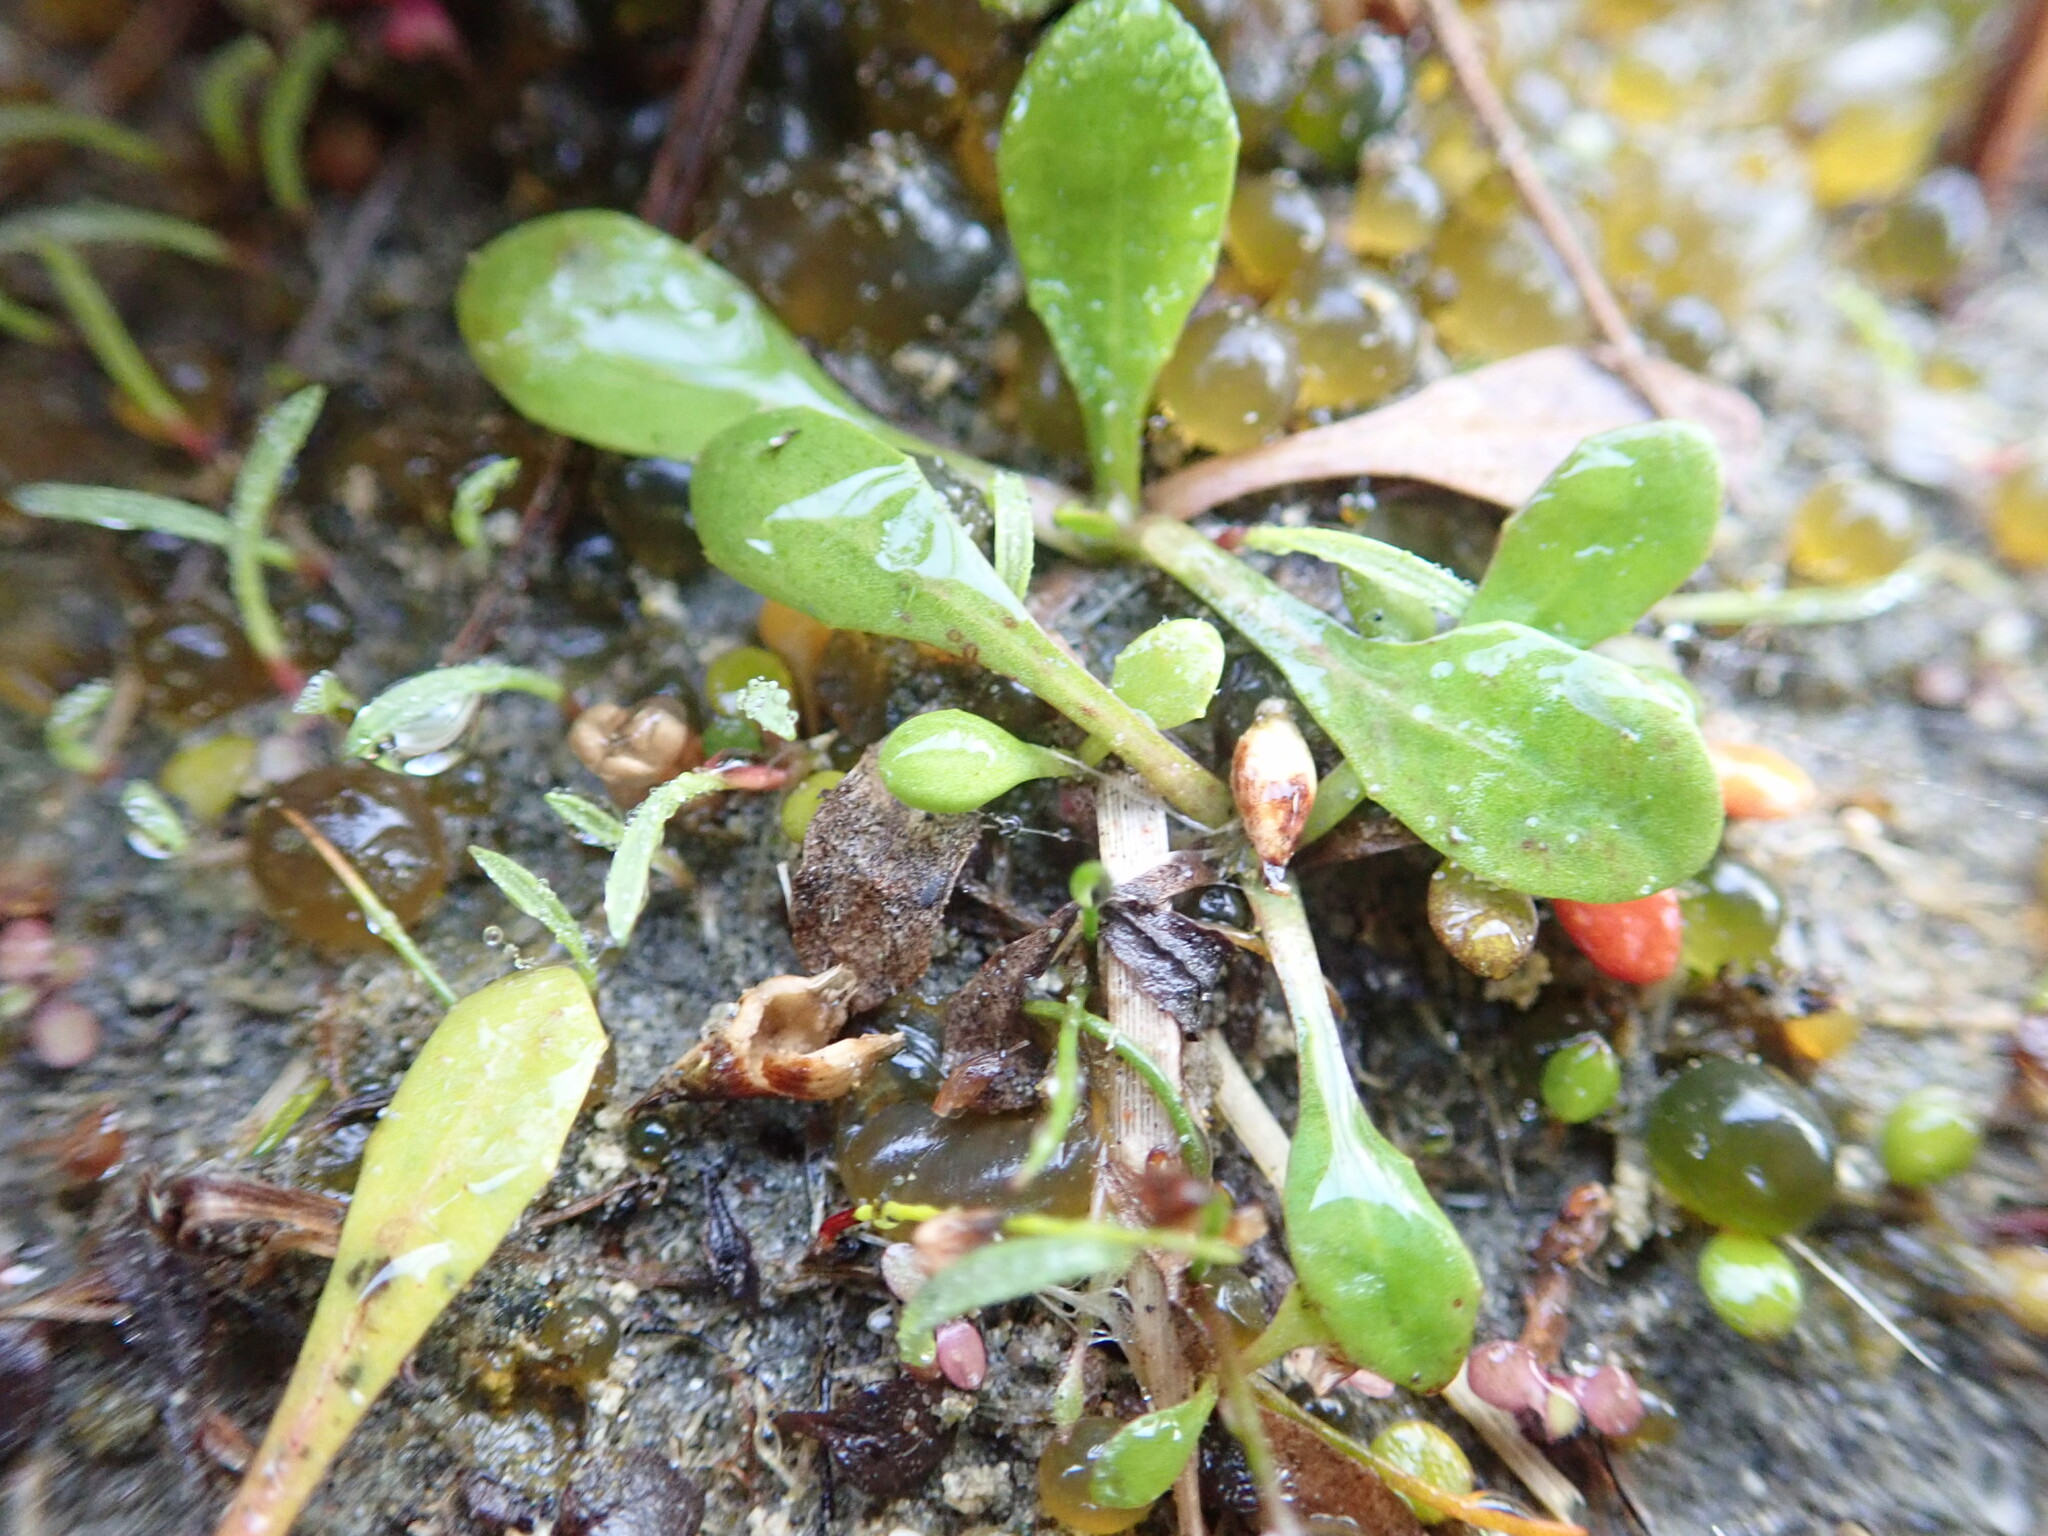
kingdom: Plantae
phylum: Tracheophyta
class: Magnoliopsida
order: Asterales
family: Campanulaceae
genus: Lobelia
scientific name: Lobelia anceps
